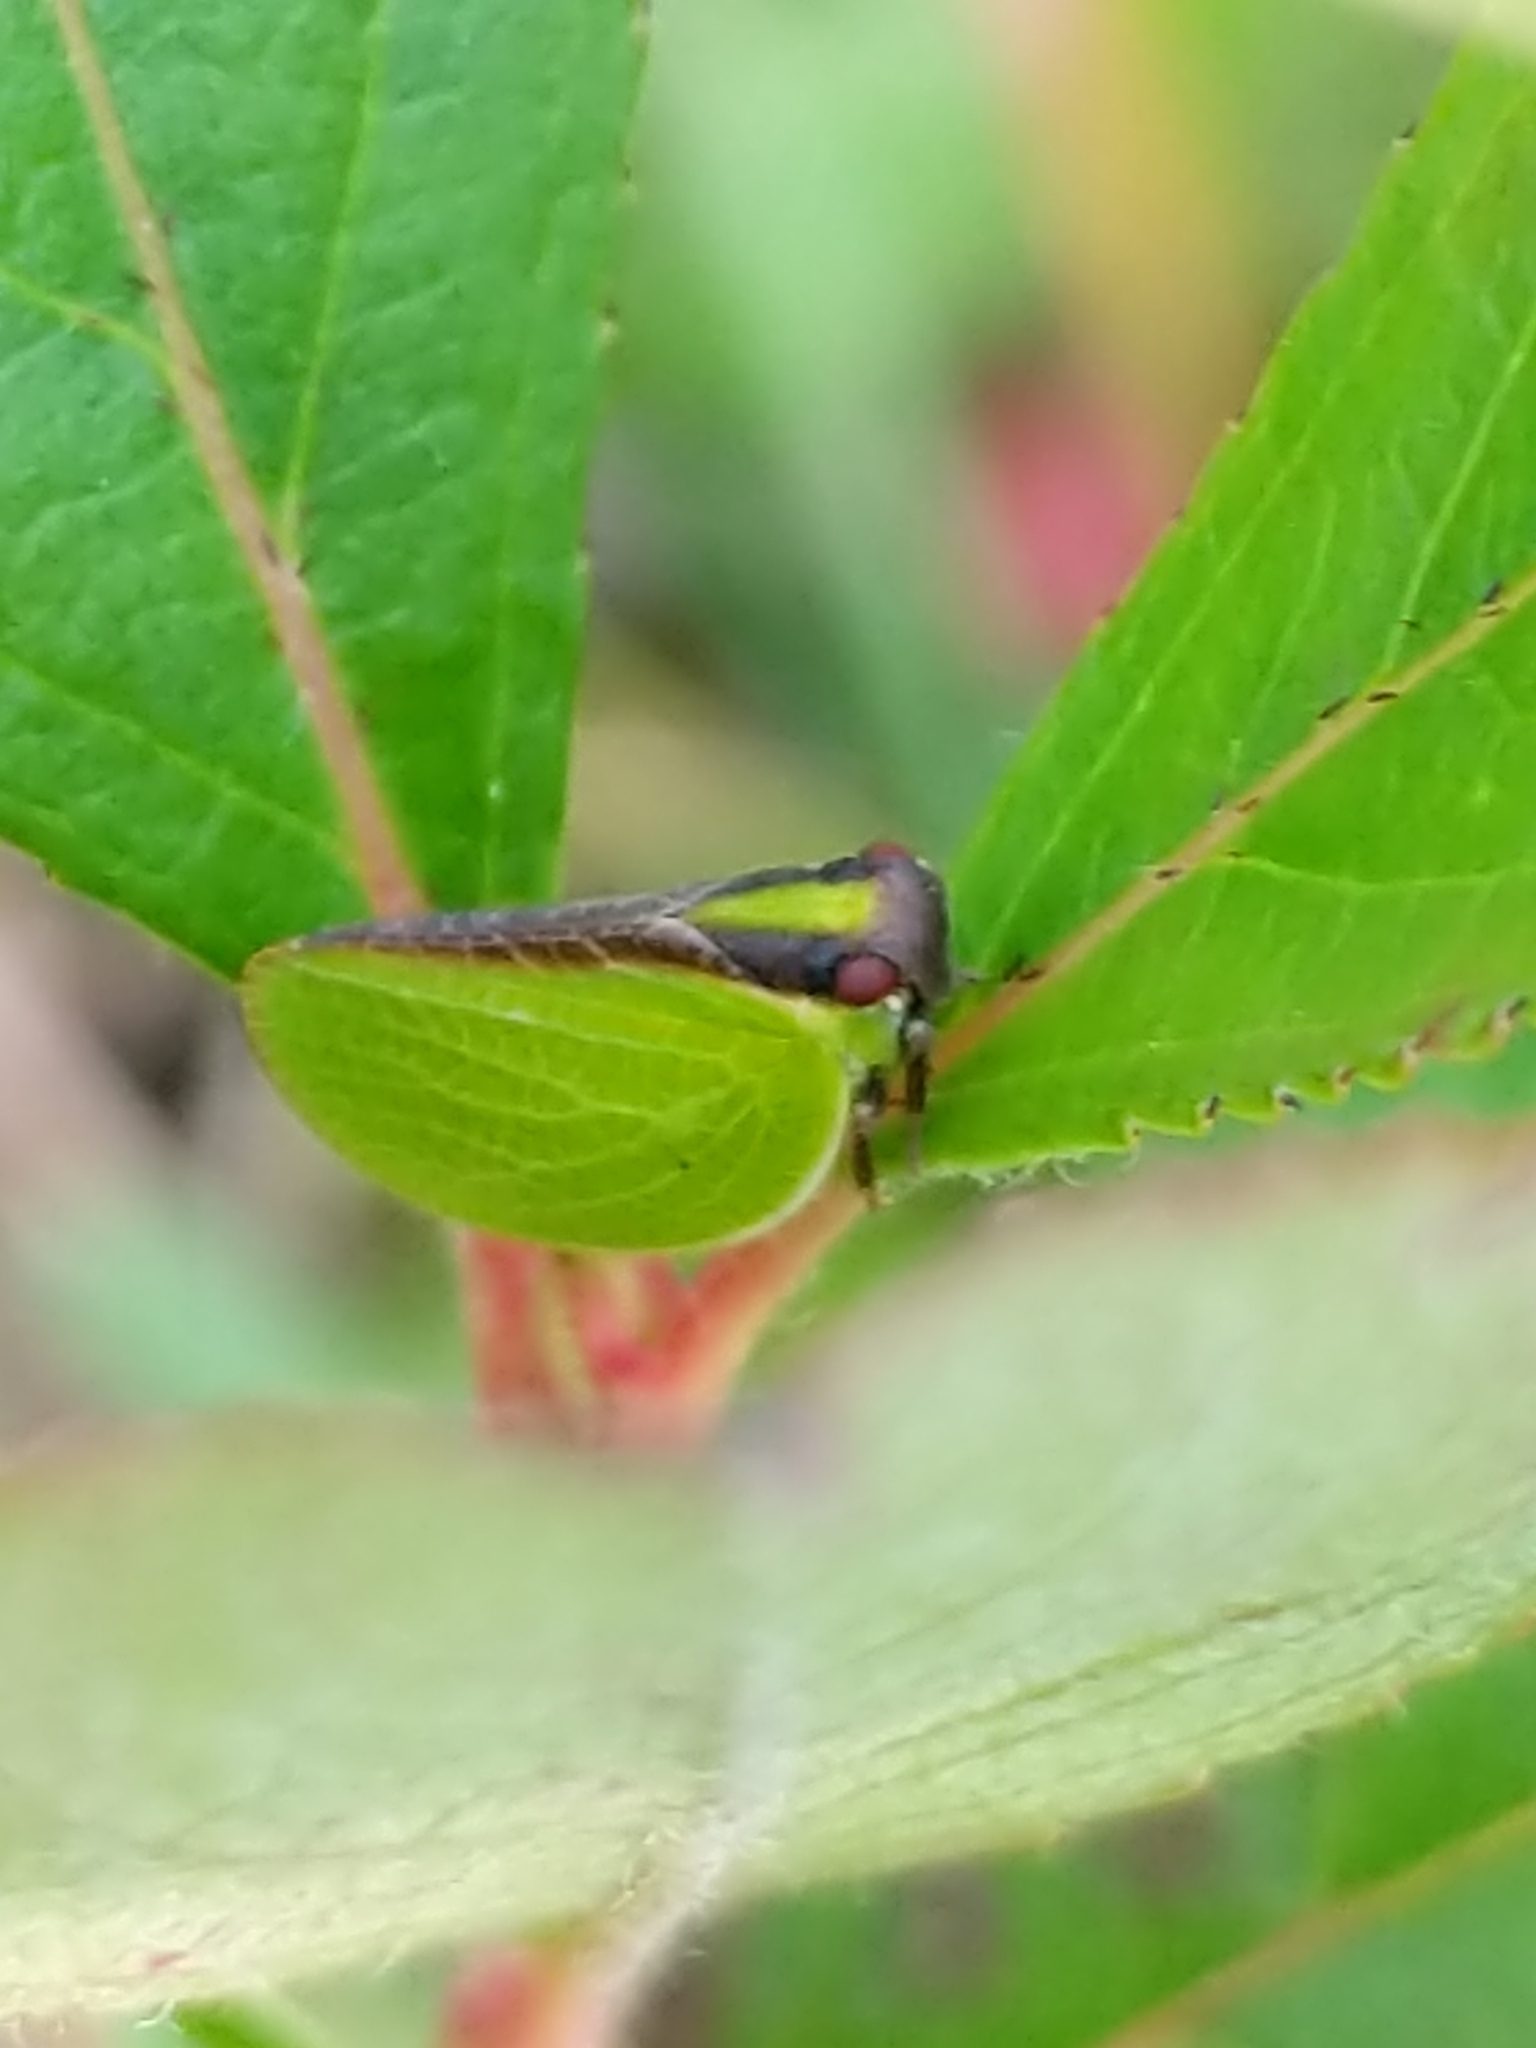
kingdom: Animalia
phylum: Arthropoda
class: Insecta
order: Hemiptera
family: Acanaloniidae
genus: Acanalonia
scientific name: Acanalonia bivittata
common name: Two-striped planthopper
